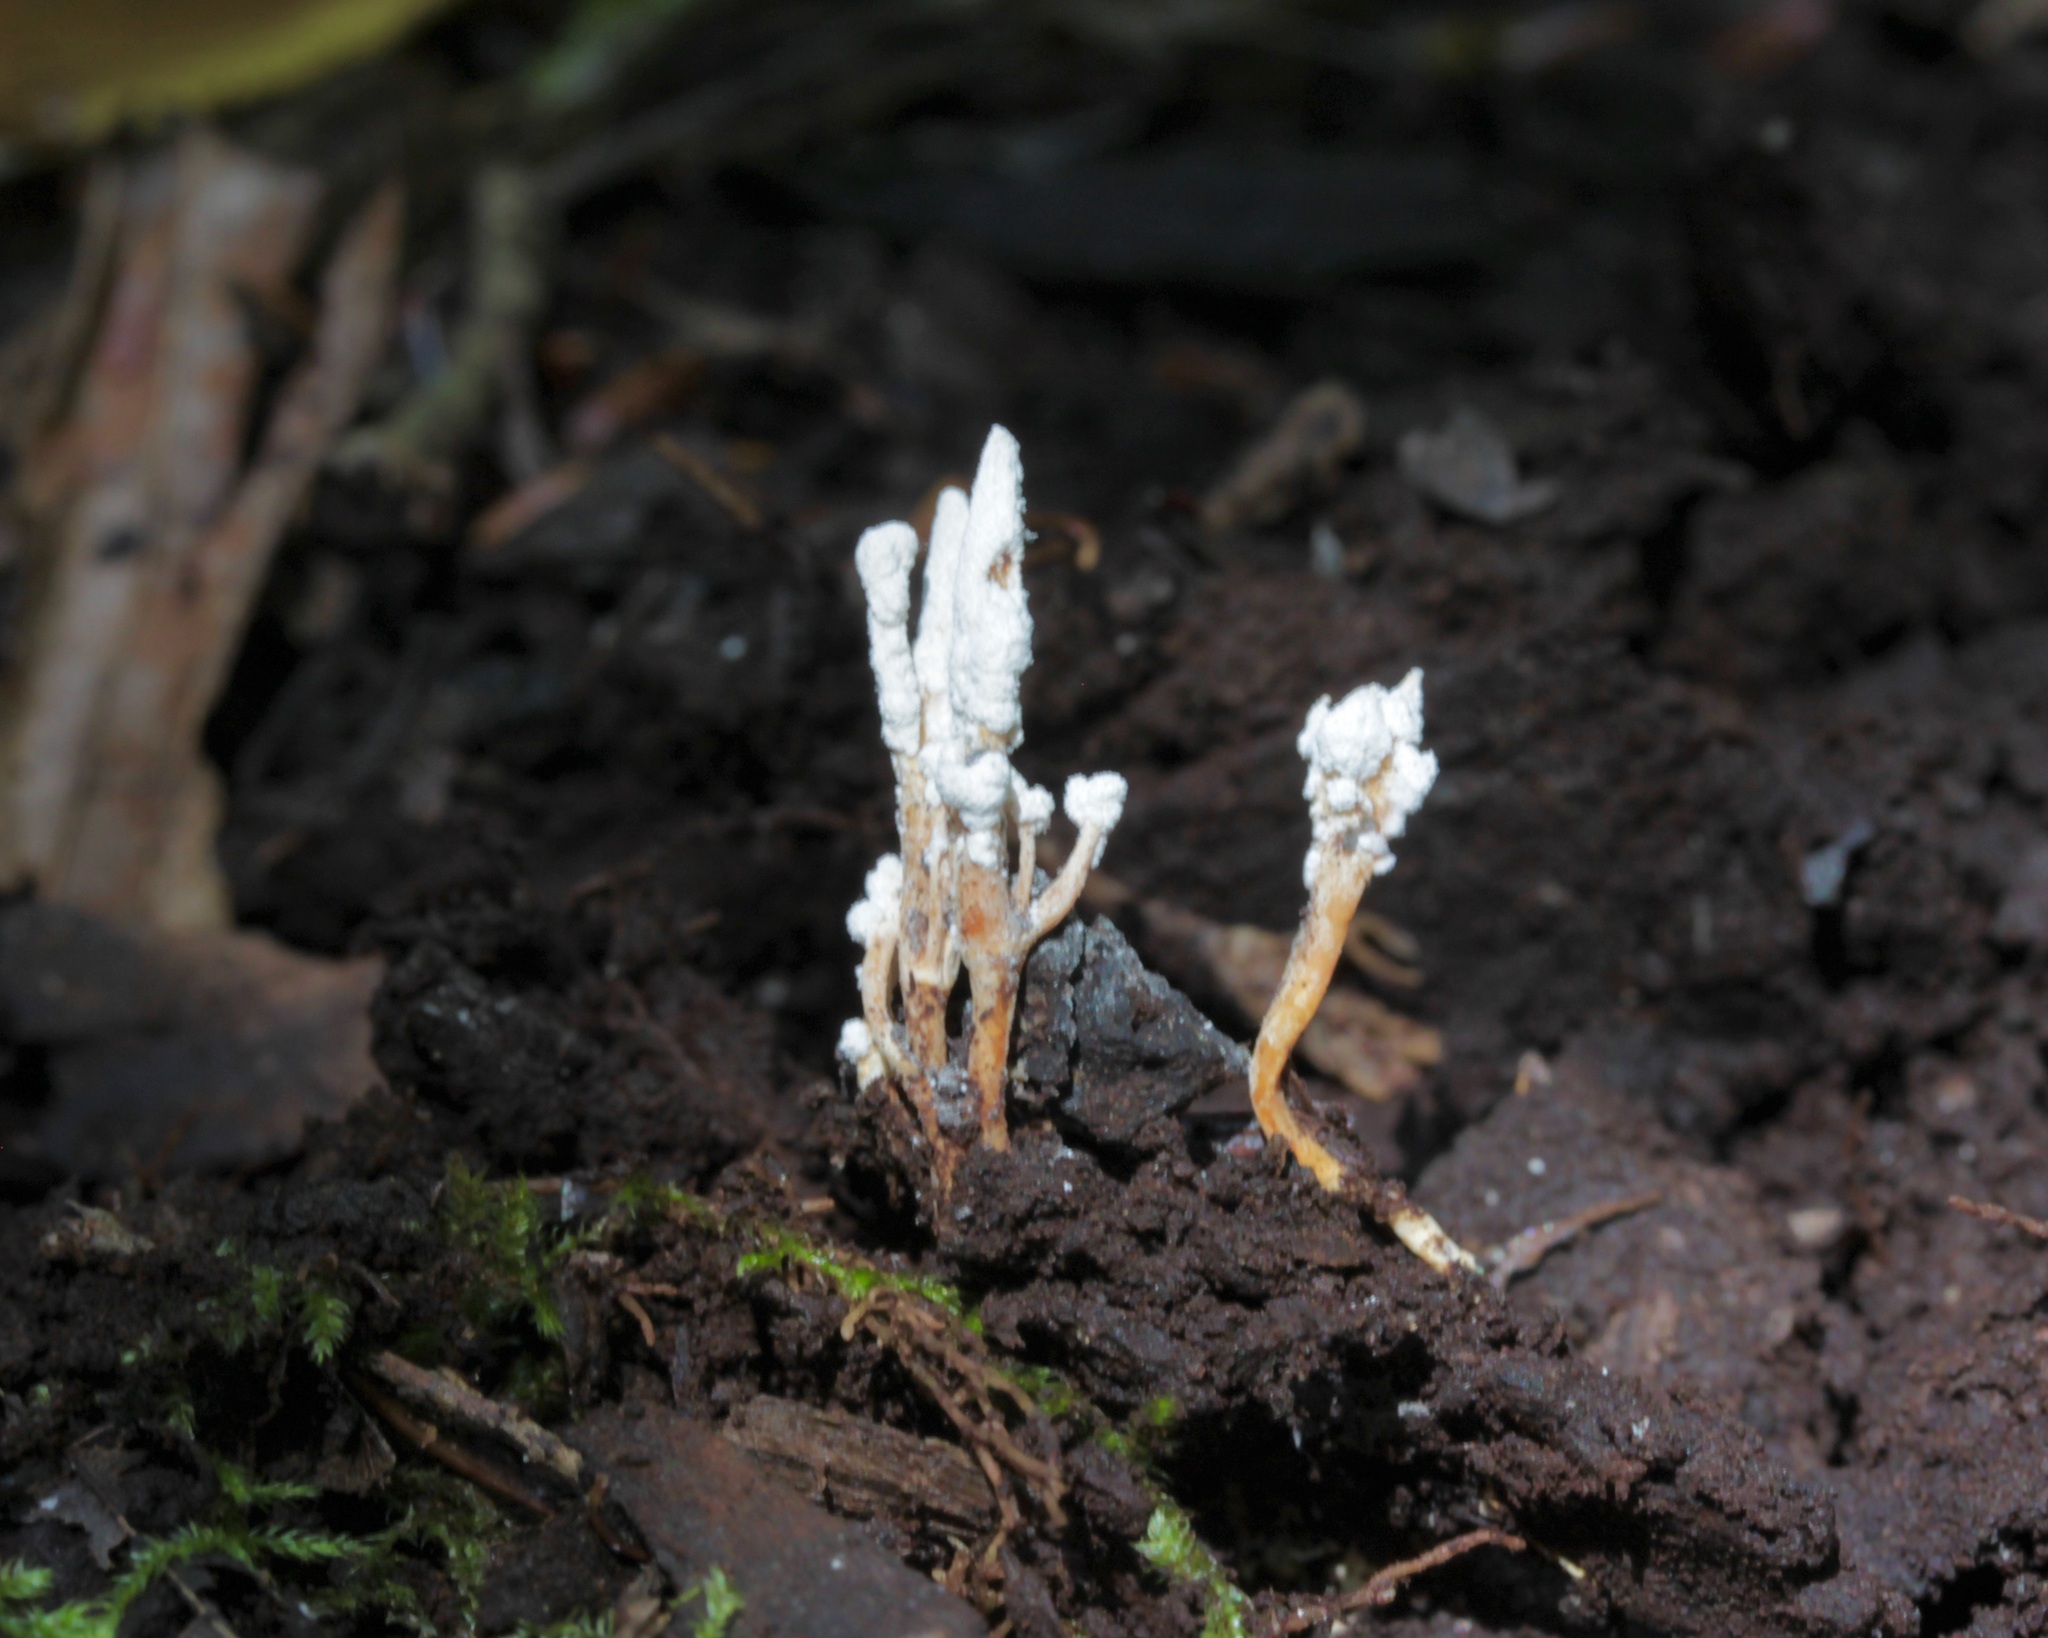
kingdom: Fungi
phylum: Ascomycota
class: Sordariomycetes
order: Hypocreales
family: Cordycipitaceae
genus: Cordyceps
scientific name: Cordyceps tenuipes
